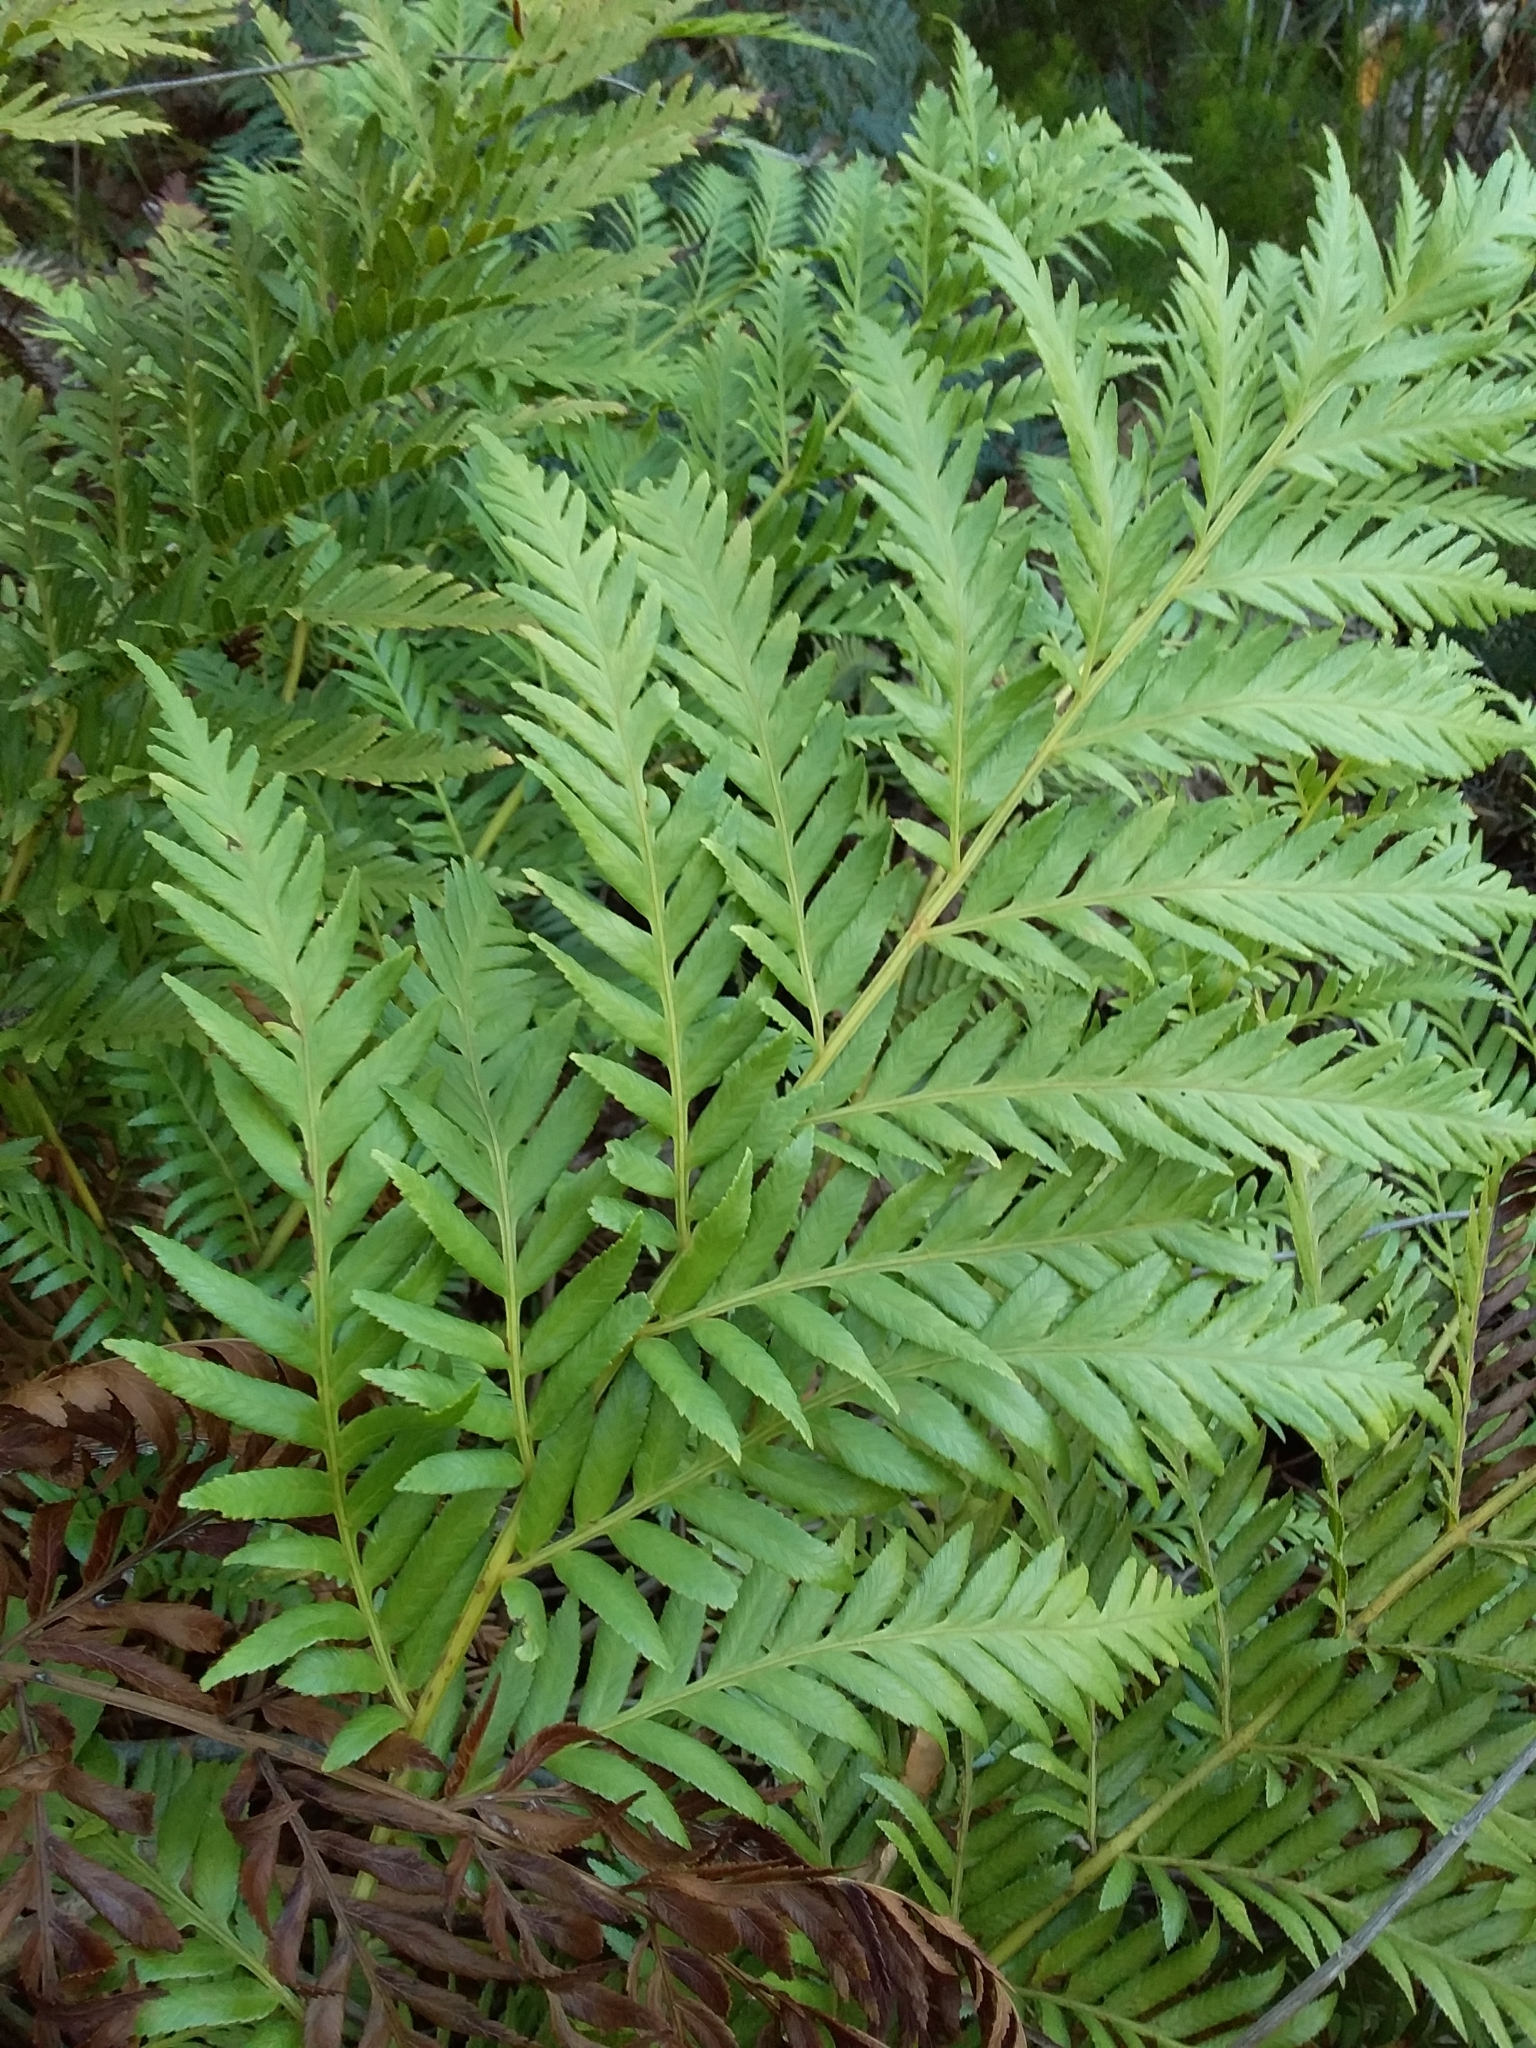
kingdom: Plantae
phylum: Tracheophyta
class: Polypodiopsida
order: Osmundales
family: Osmundaceae
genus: Todea
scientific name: Todea barbara
